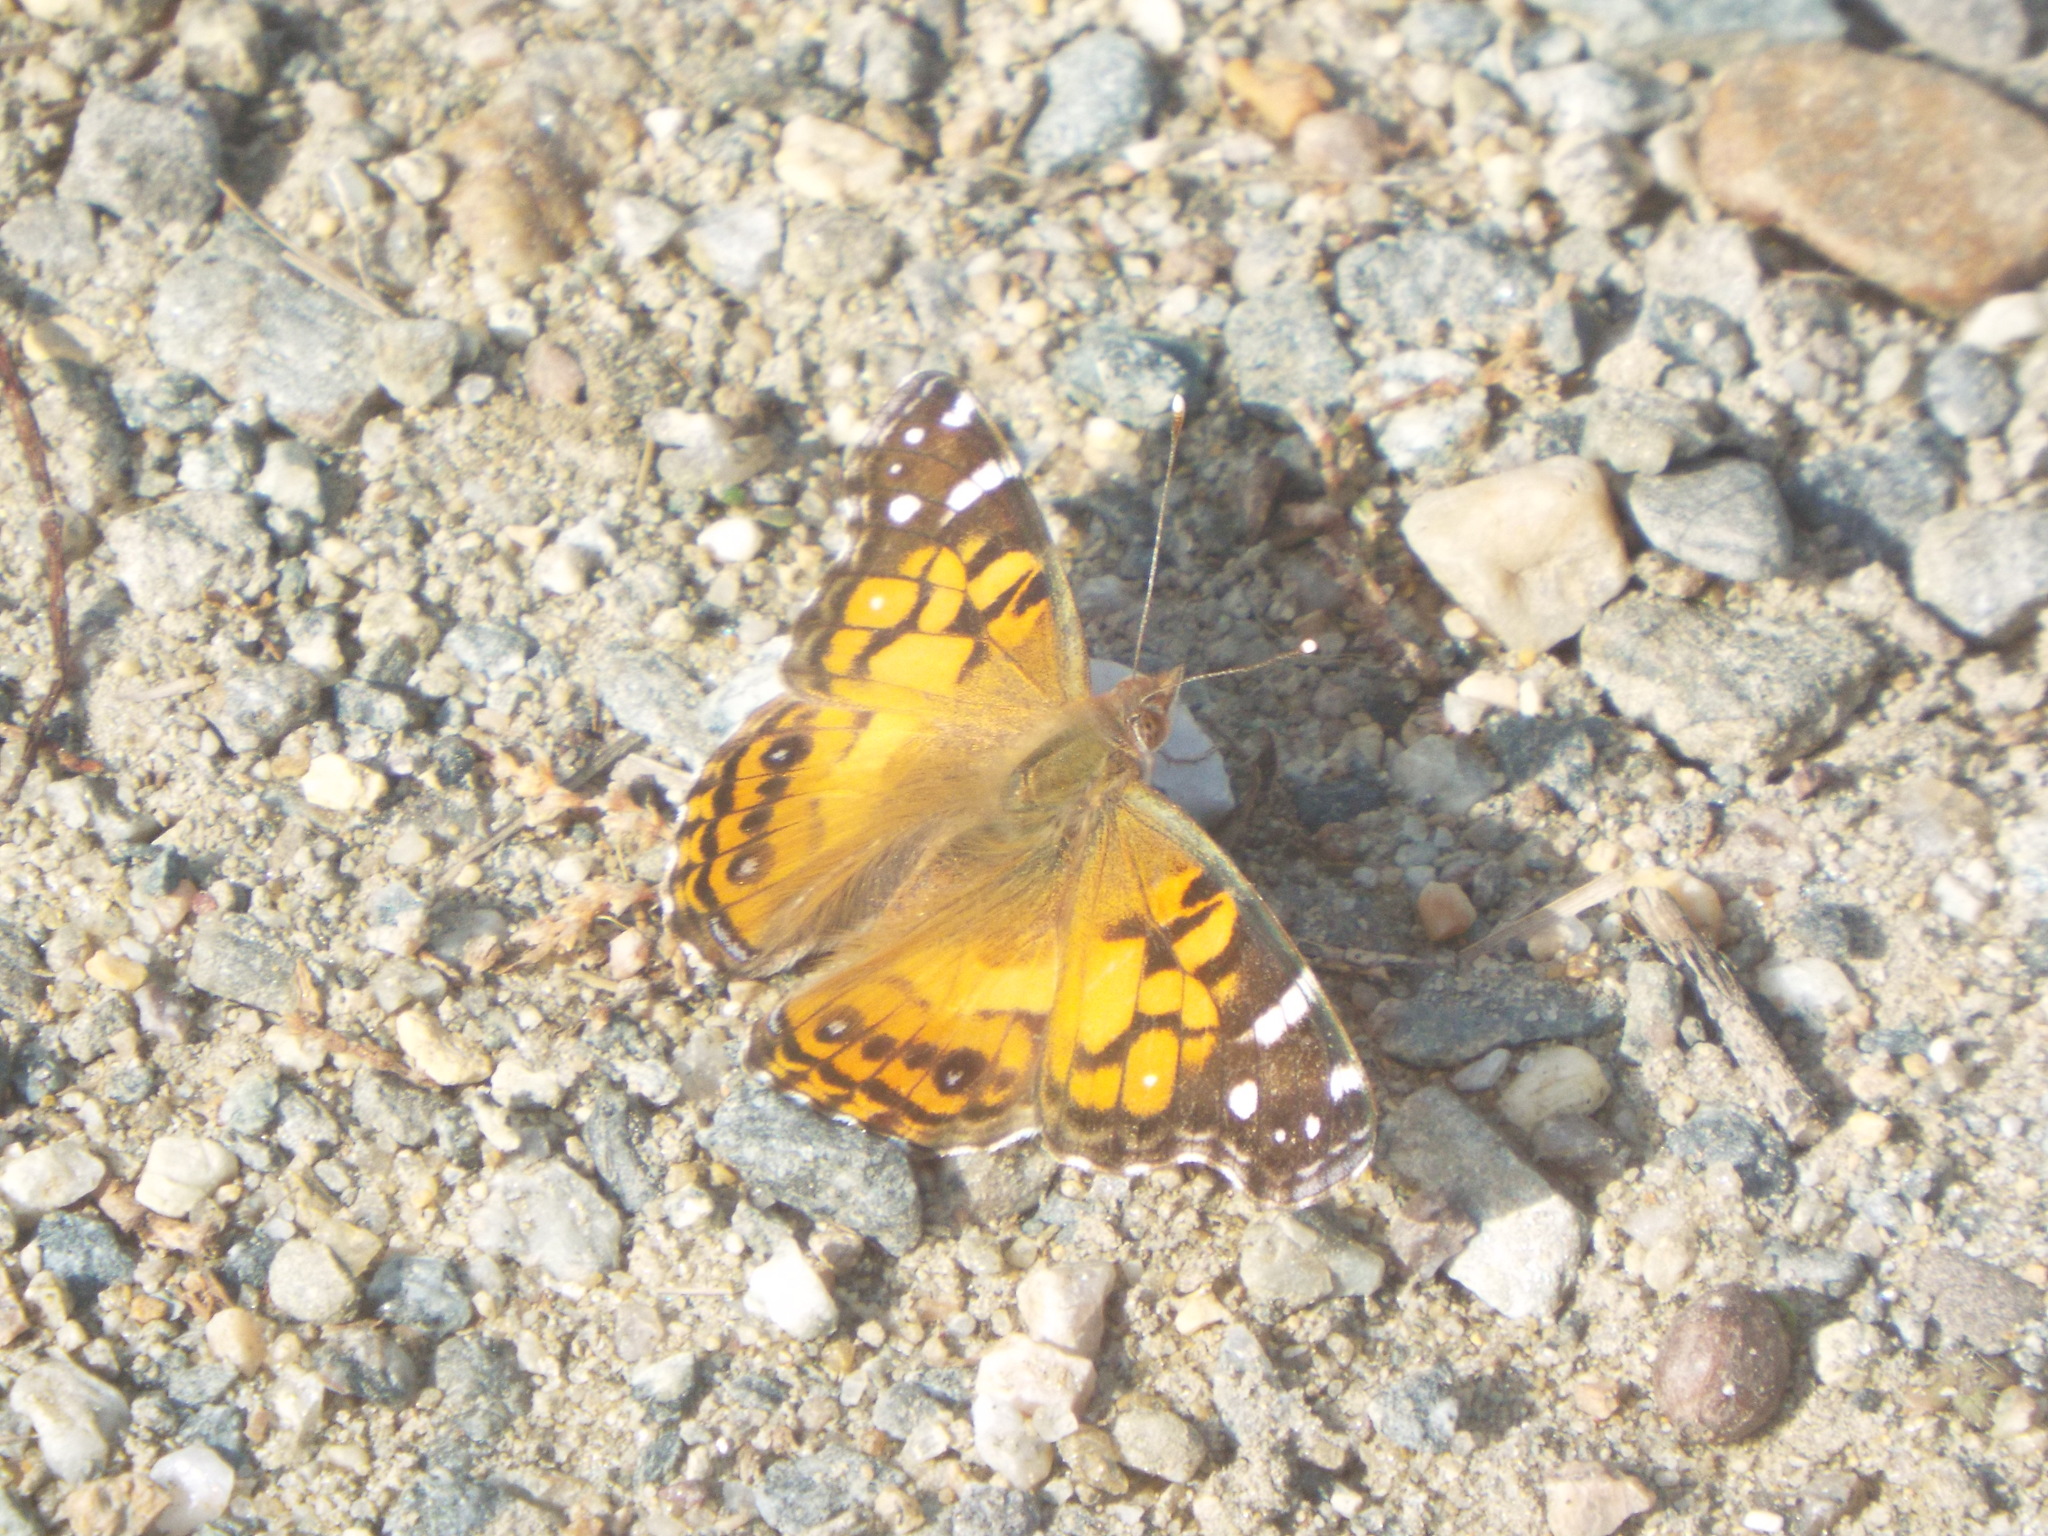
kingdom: Animalia
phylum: Arthropoda
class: Insecta
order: Lepidoptera
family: Nymphalidae
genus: Vanessa
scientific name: Vanessa virginiensis
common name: American lady
